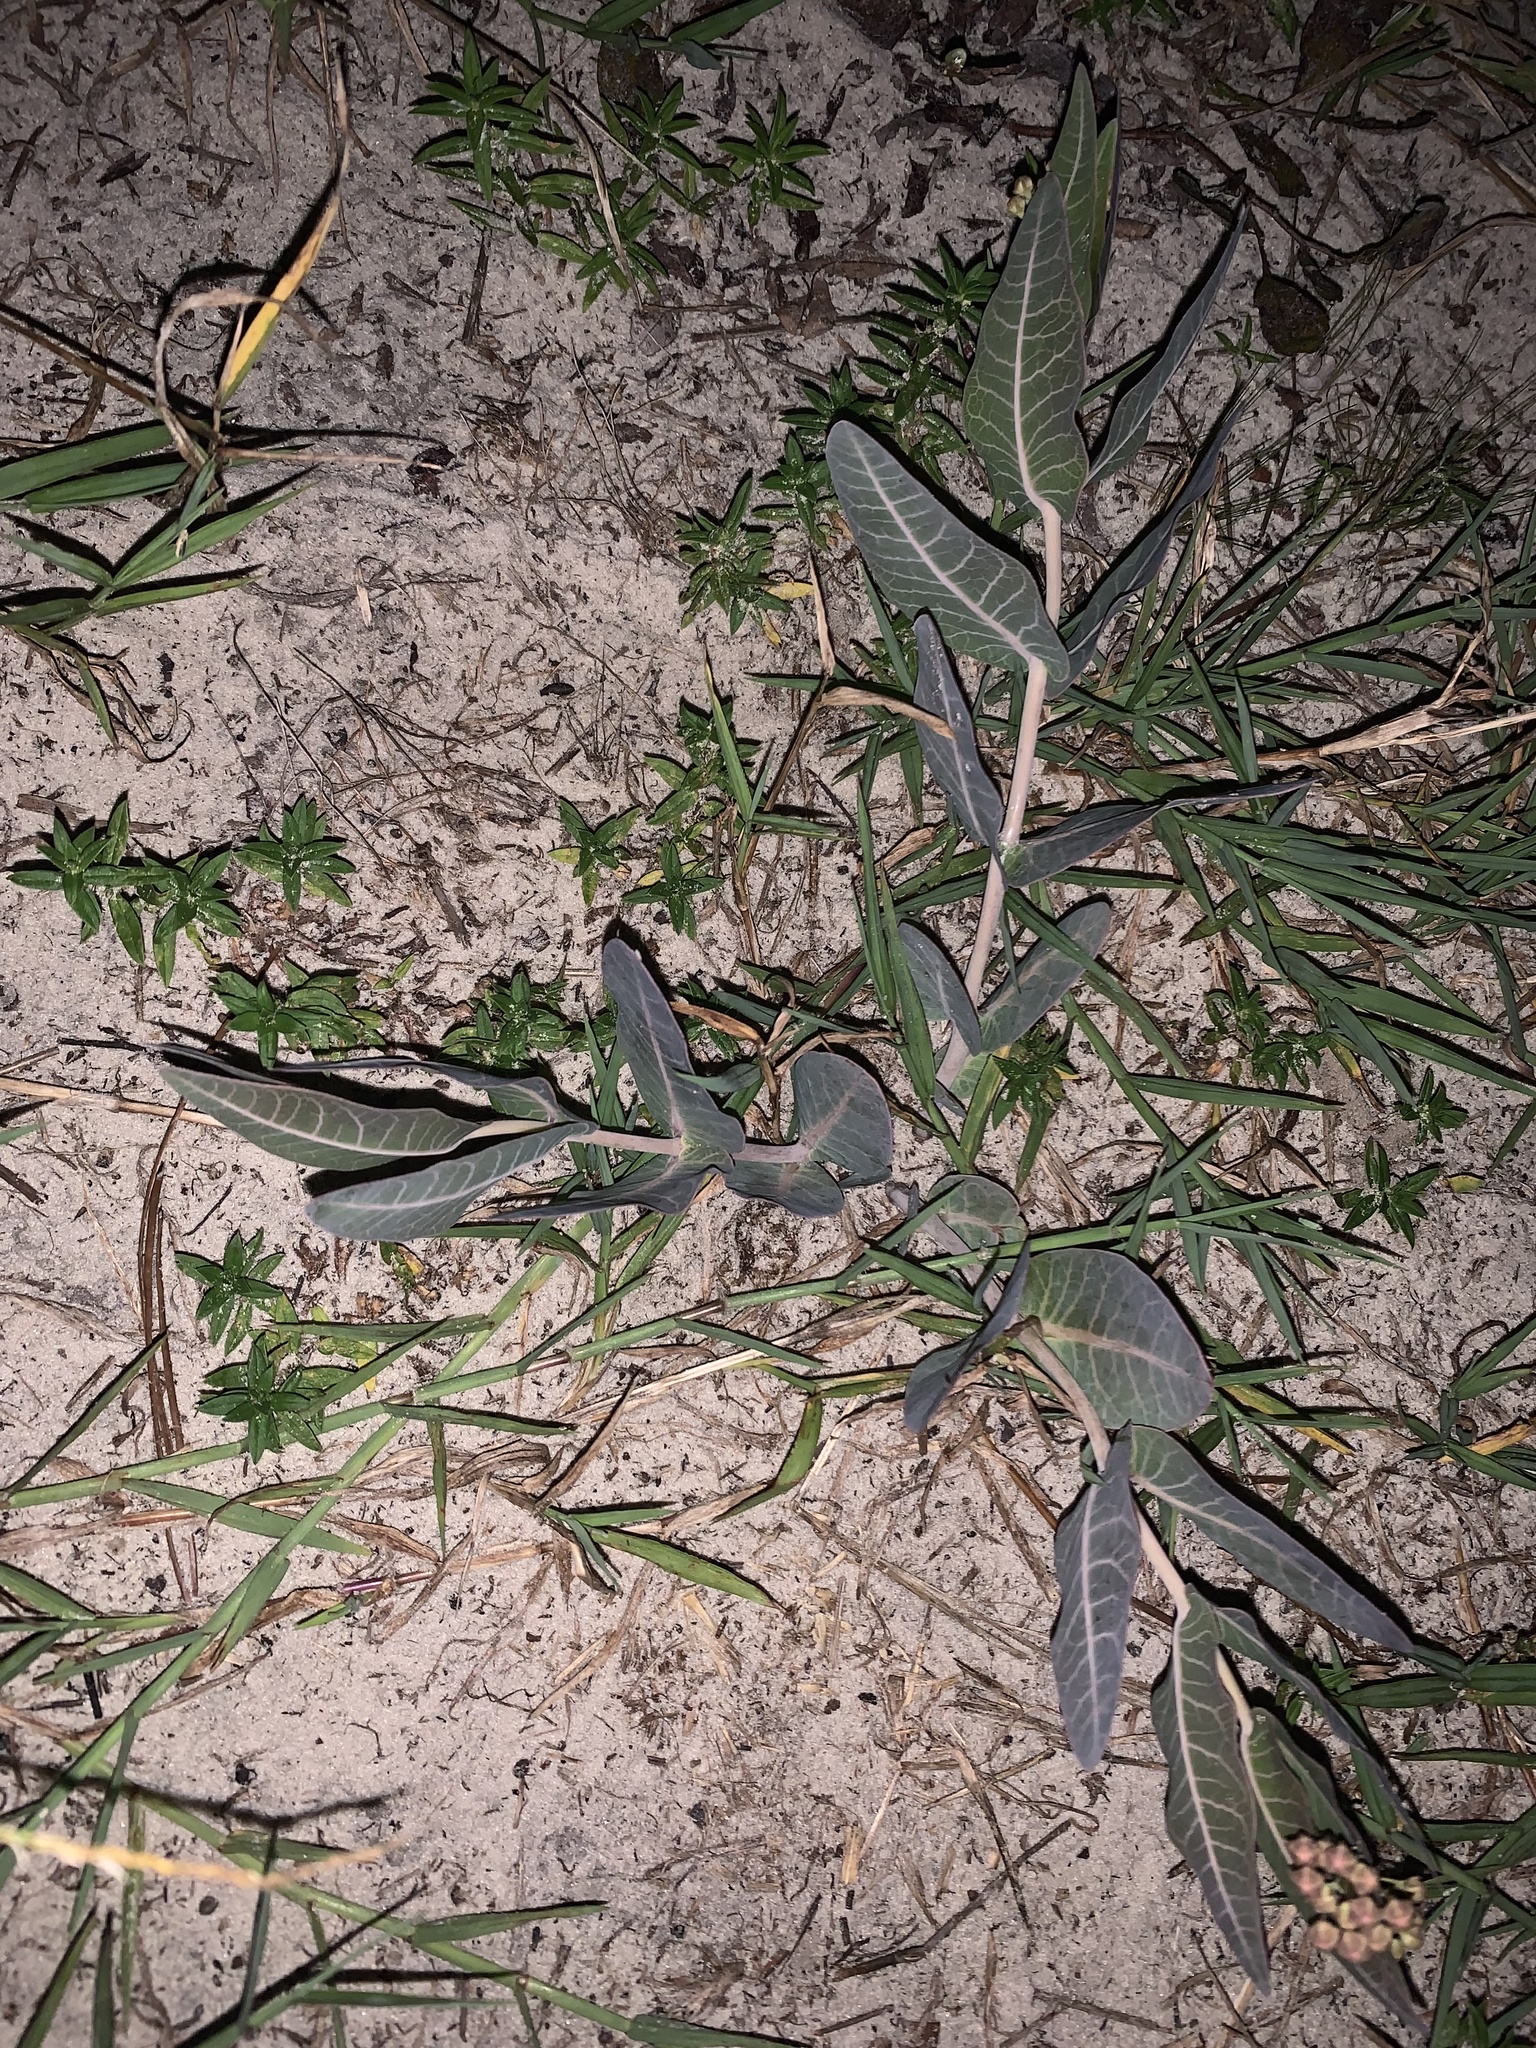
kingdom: Plantae
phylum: Tracheophyta
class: Magnoliopsida
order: Gentianales
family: Apocynaceae
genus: Asclepias
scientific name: Asclepias humistrata
